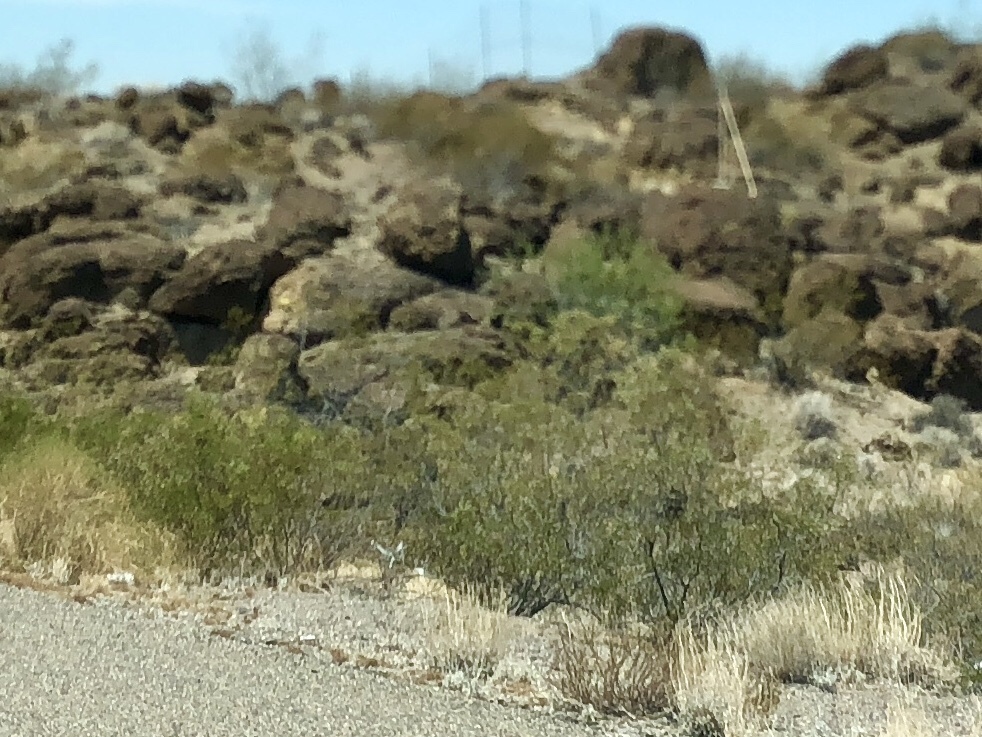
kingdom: Plantae
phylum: Tracheophyta
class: Magnoliopsida
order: Zygophyllales
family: Zygophyllaceae
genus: Larrea
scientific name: Larrea tridentata
